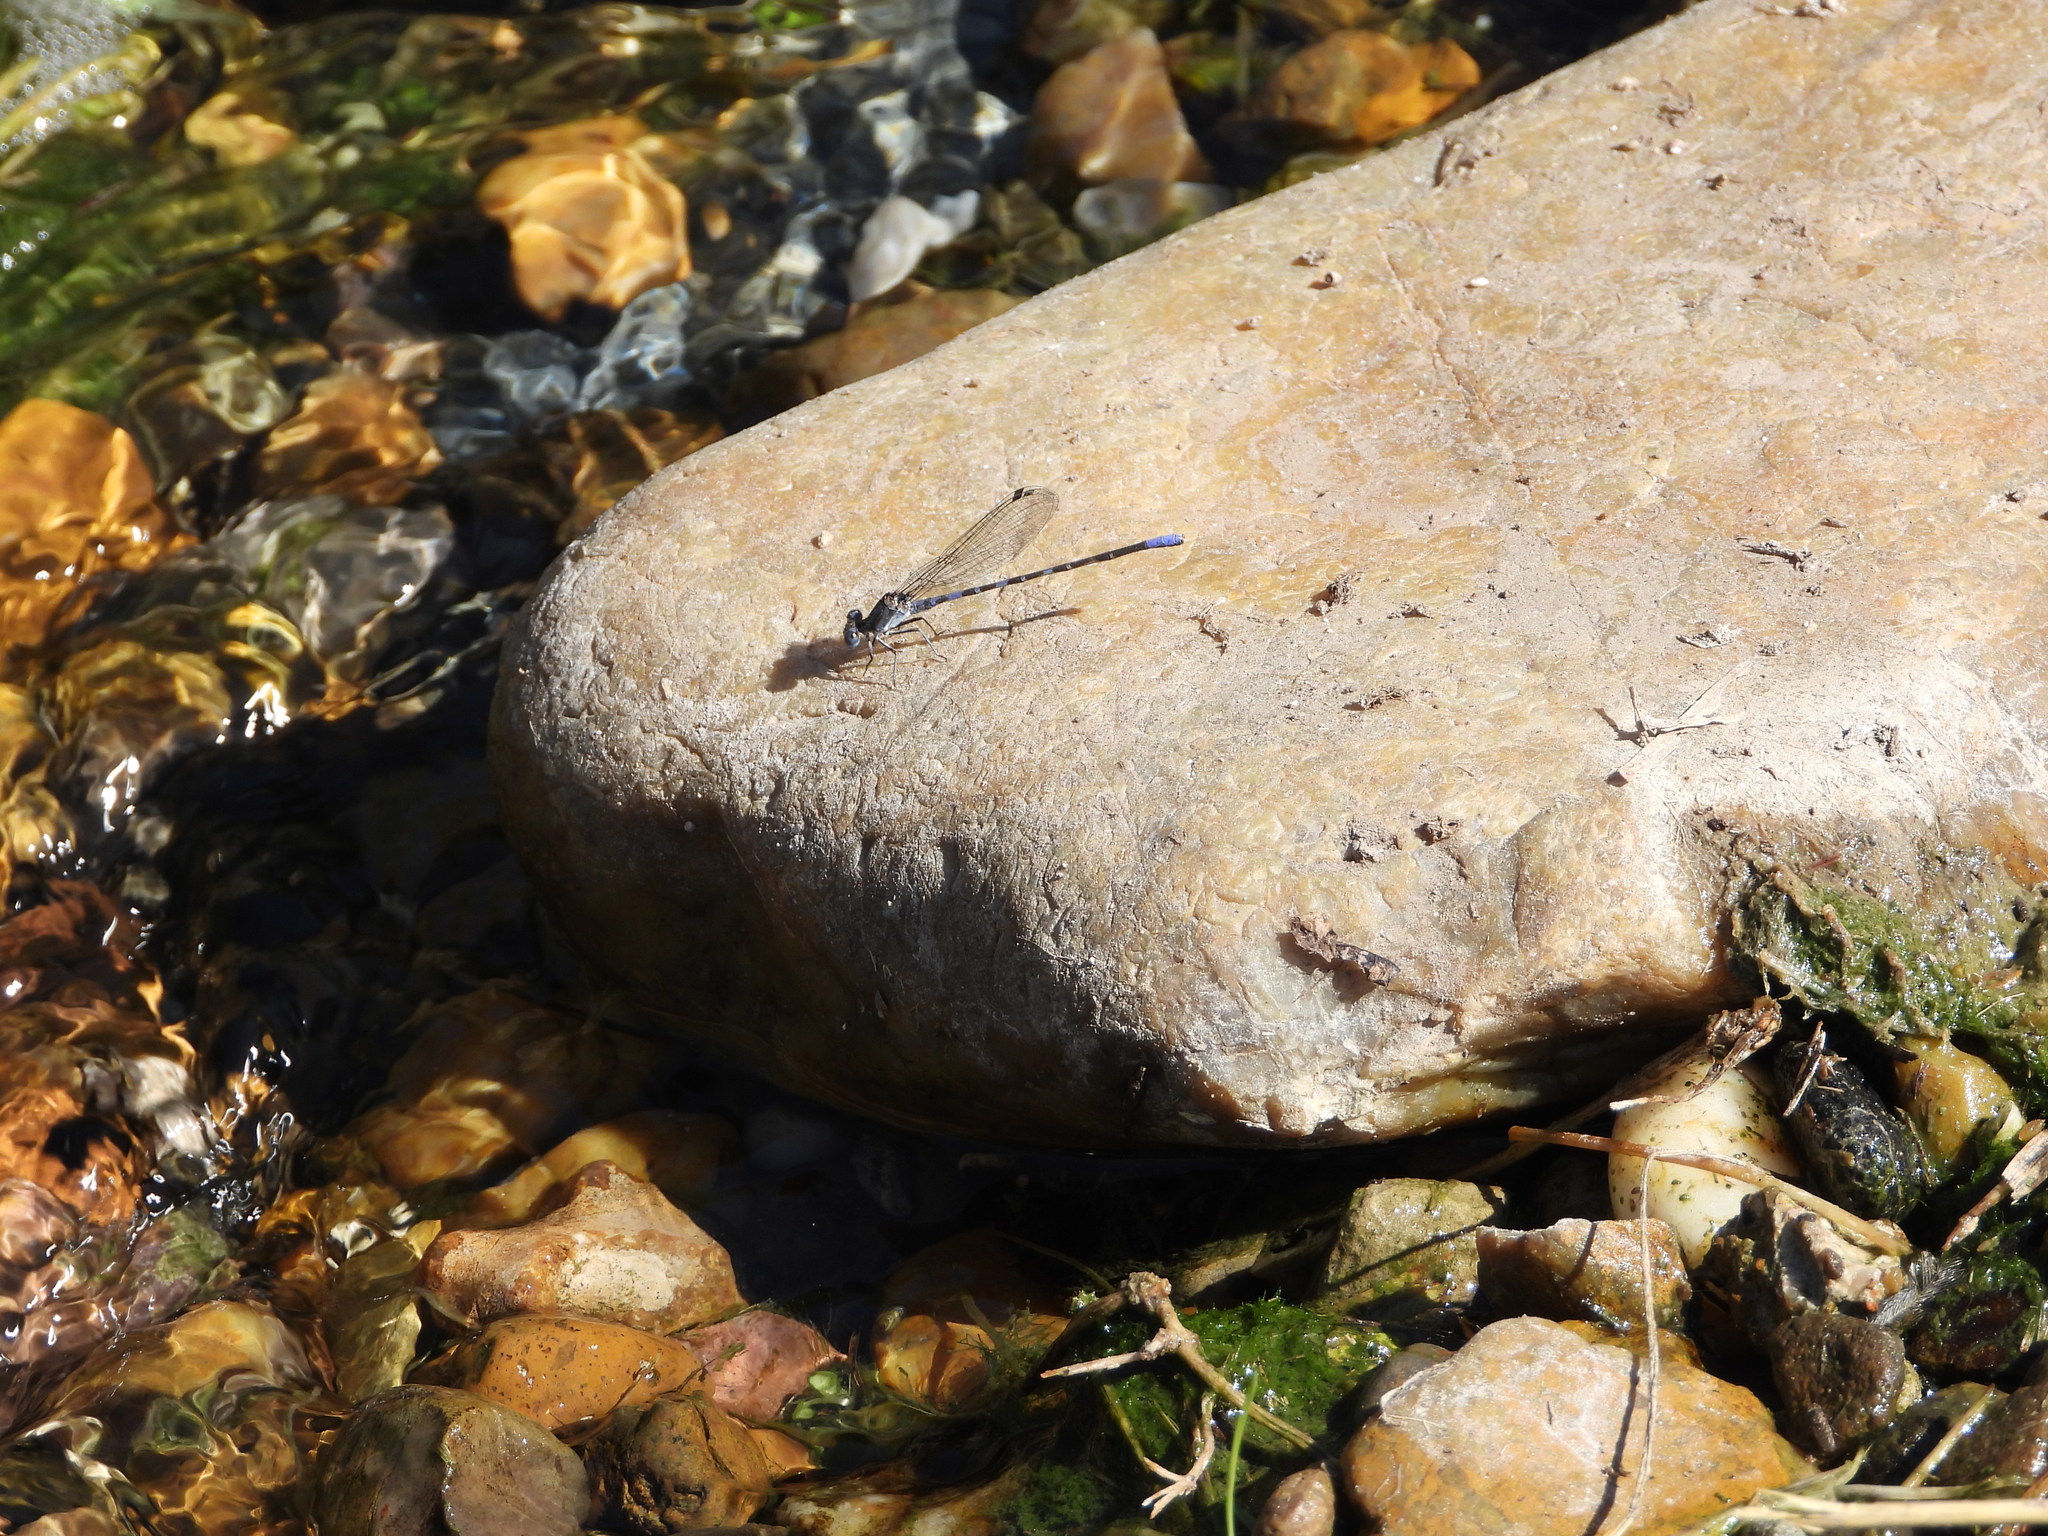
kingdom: Animalia
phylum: Arthropoda
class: Insecta
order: Odonata
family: Coenagrionidae
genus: Argia
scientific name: Argia immunda
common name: Kiowa dancer
